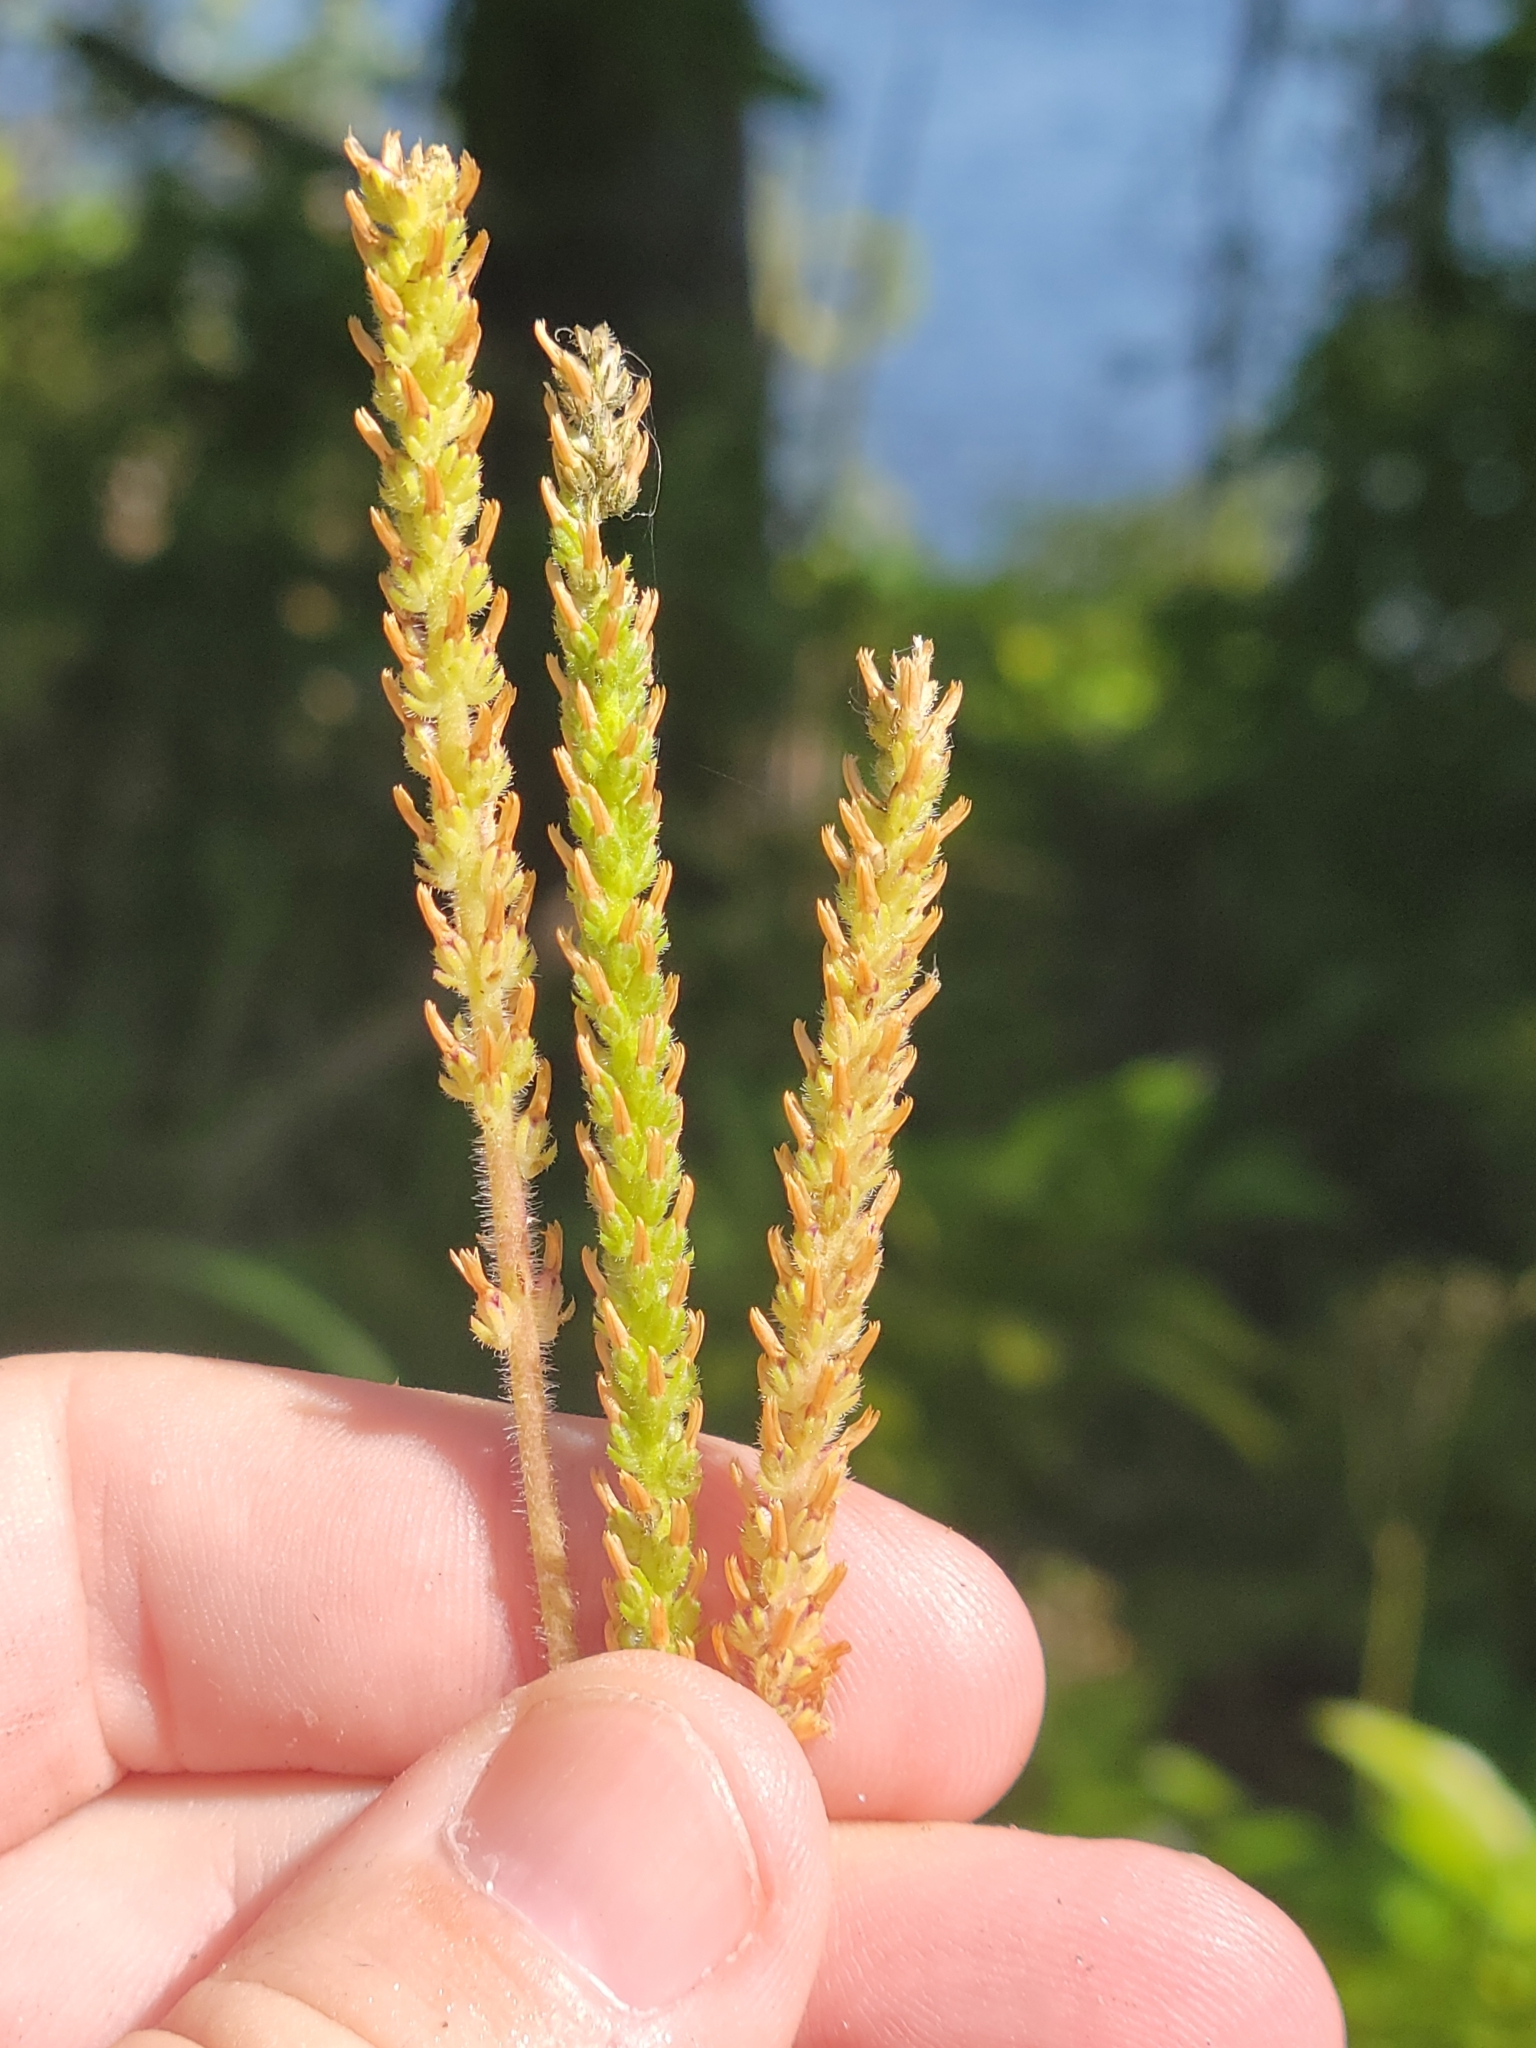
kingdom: Plantae
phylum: Tracheophyta
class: Magnoliopsida
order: Lamiales
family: Plantaginaceae
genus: Plantago
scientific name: Plantago virginica
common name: Hoary plantain
